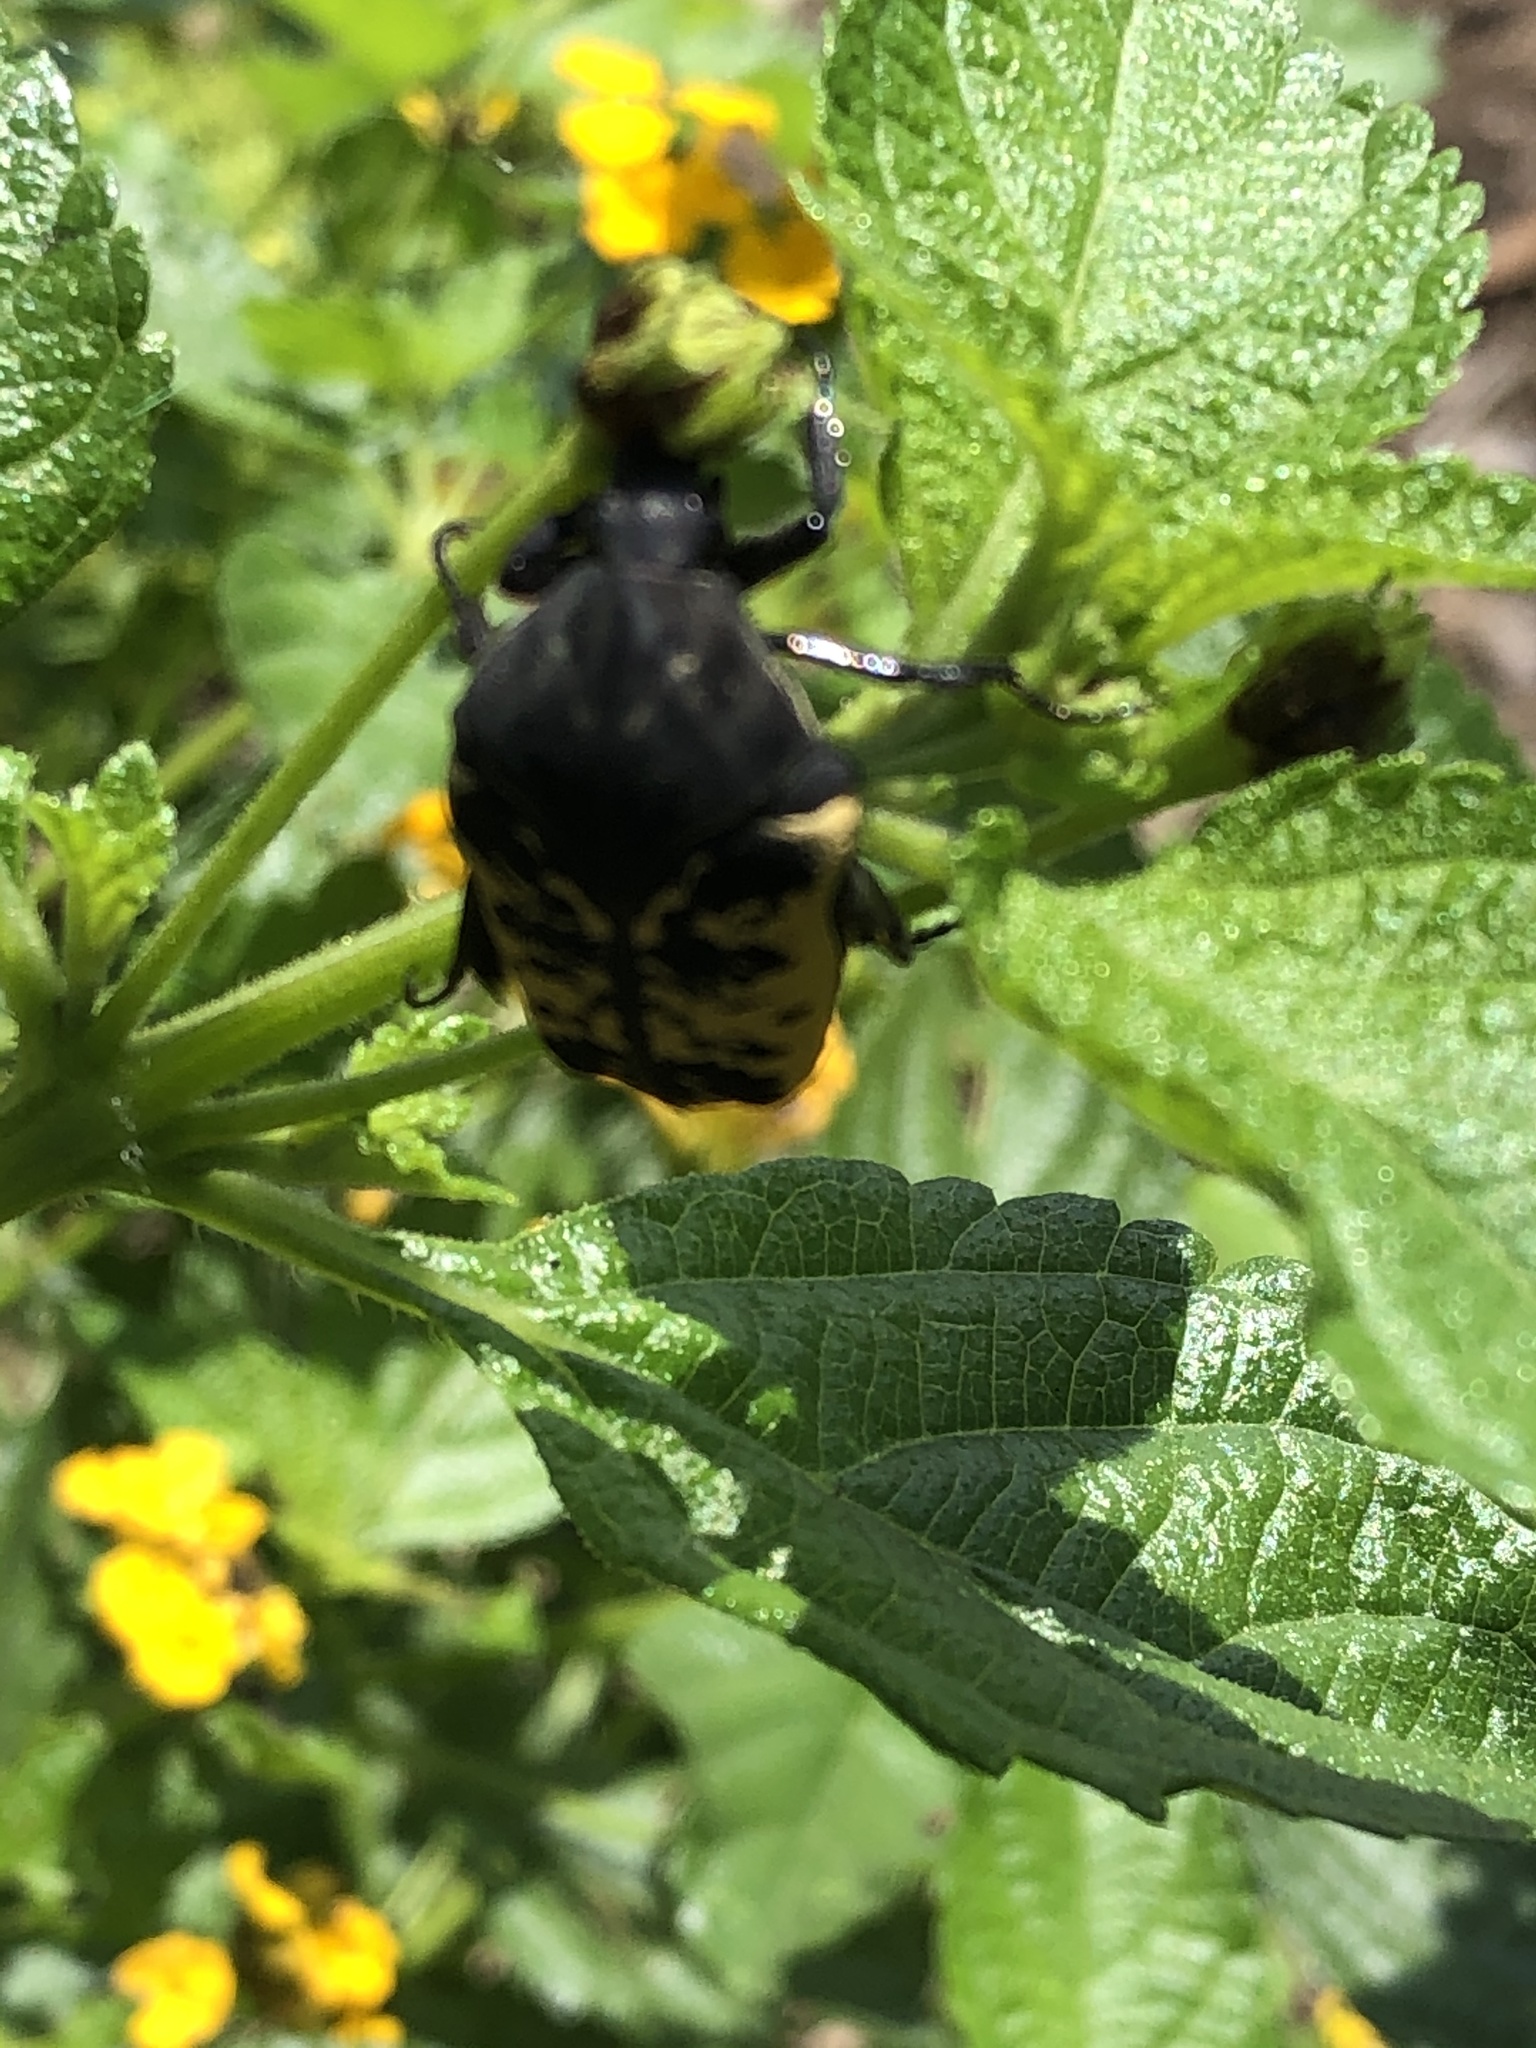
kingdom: Animalia
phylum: Arthropoda
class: Insecta
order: Coleoptera
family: Scarabaeidae
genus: Gymnetis
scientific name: Gymnetis merops
